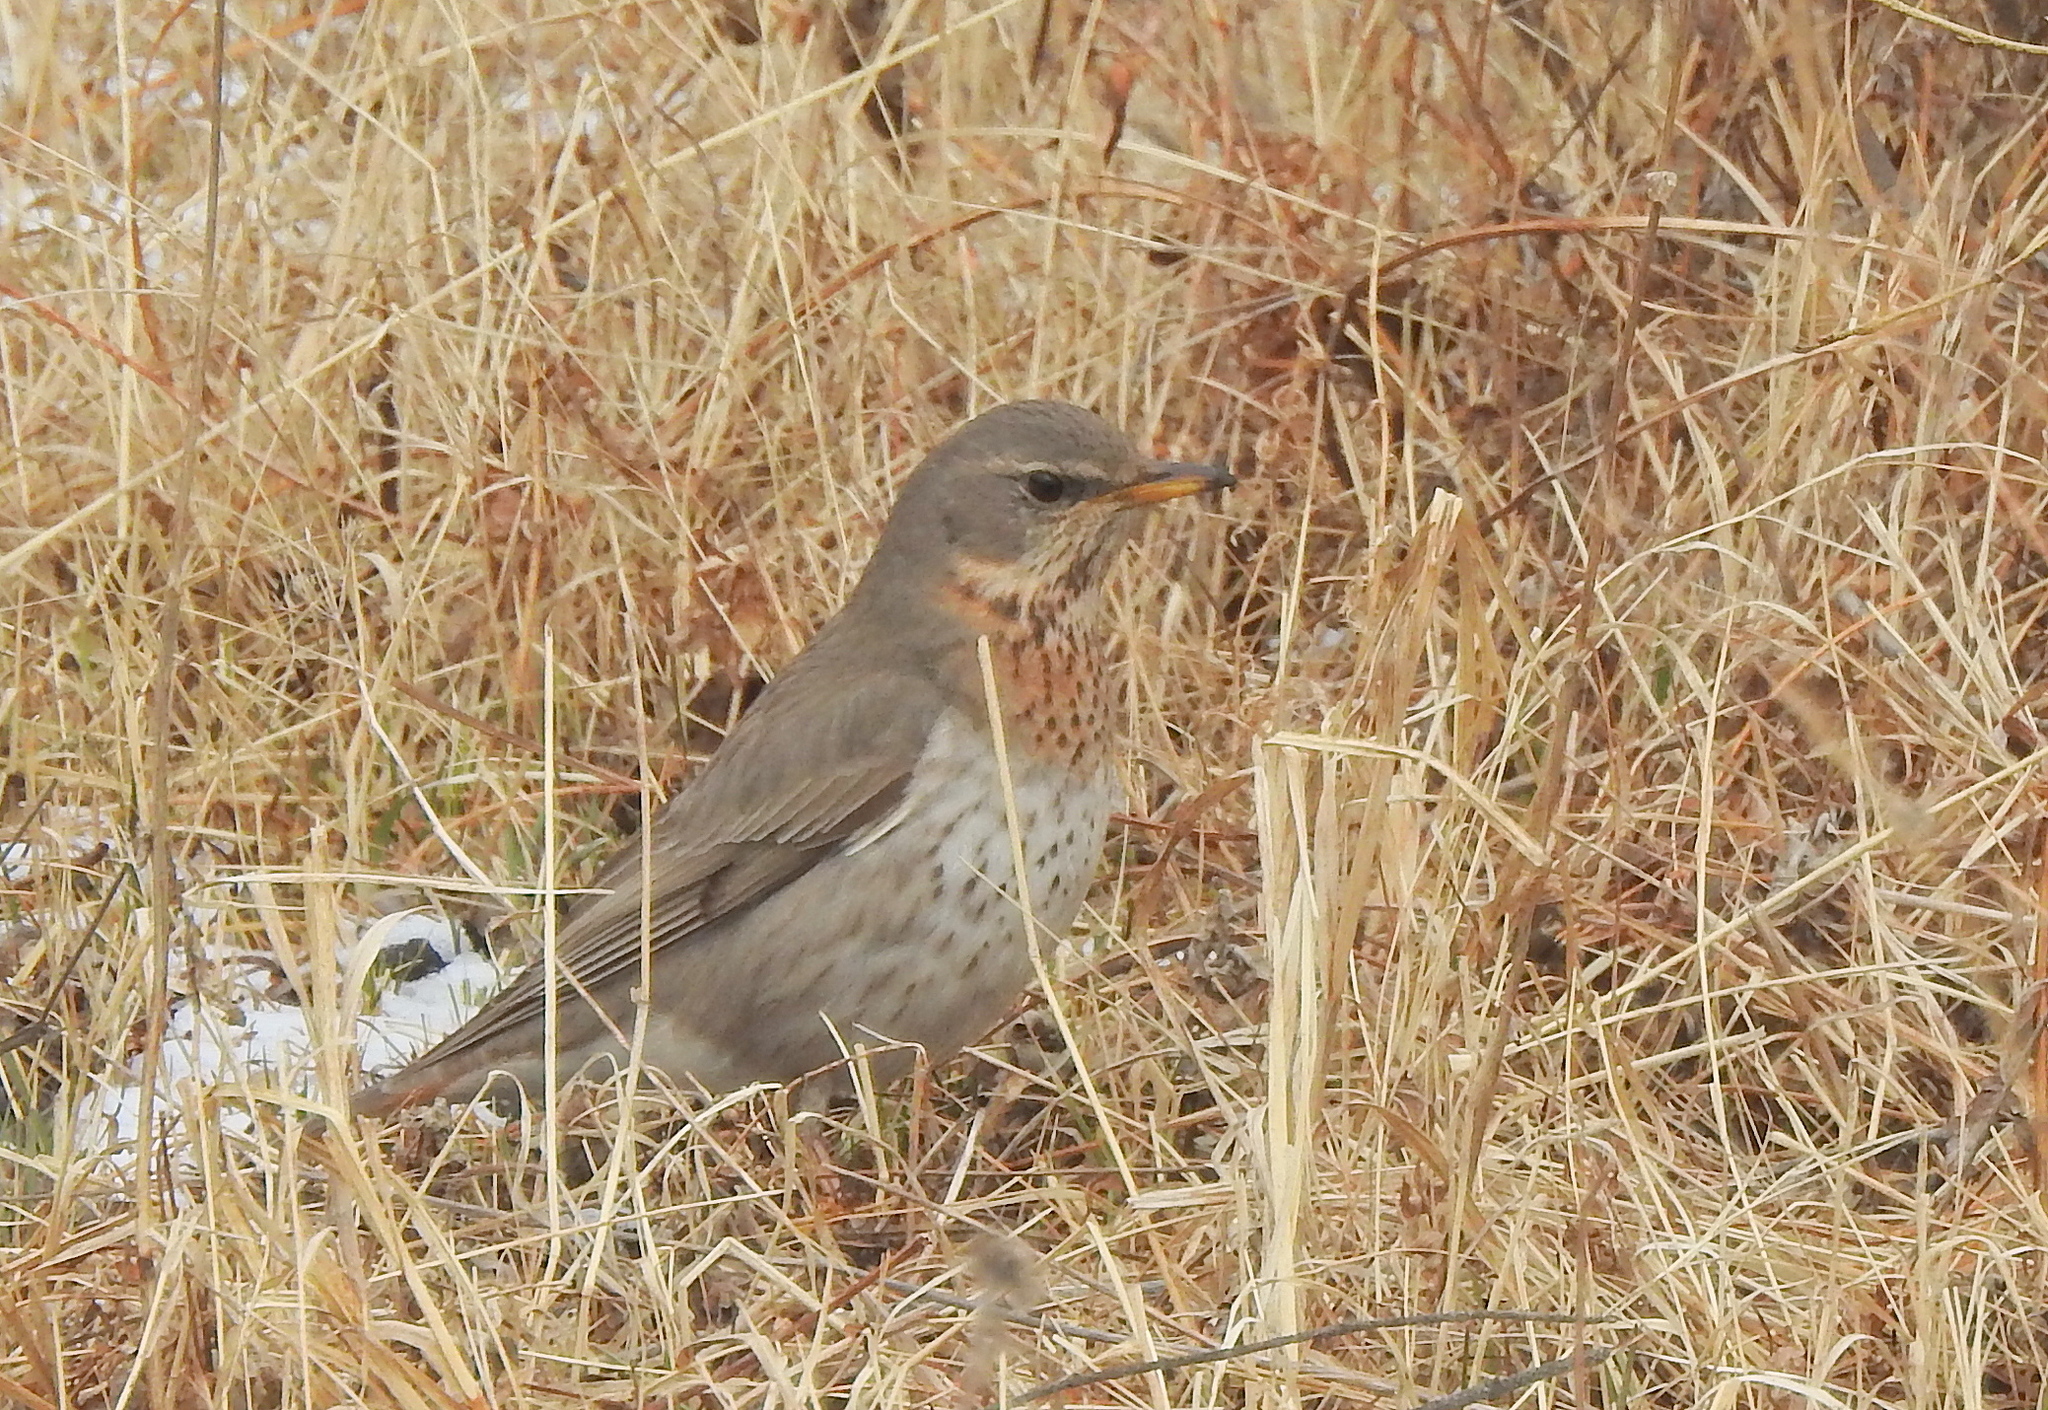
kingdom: Animalia
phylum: Chordata
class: Aves
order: Passeriformes
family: Turdidae
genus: Turdus
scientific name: Turdus ruficollis
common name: Red-throated thrush
